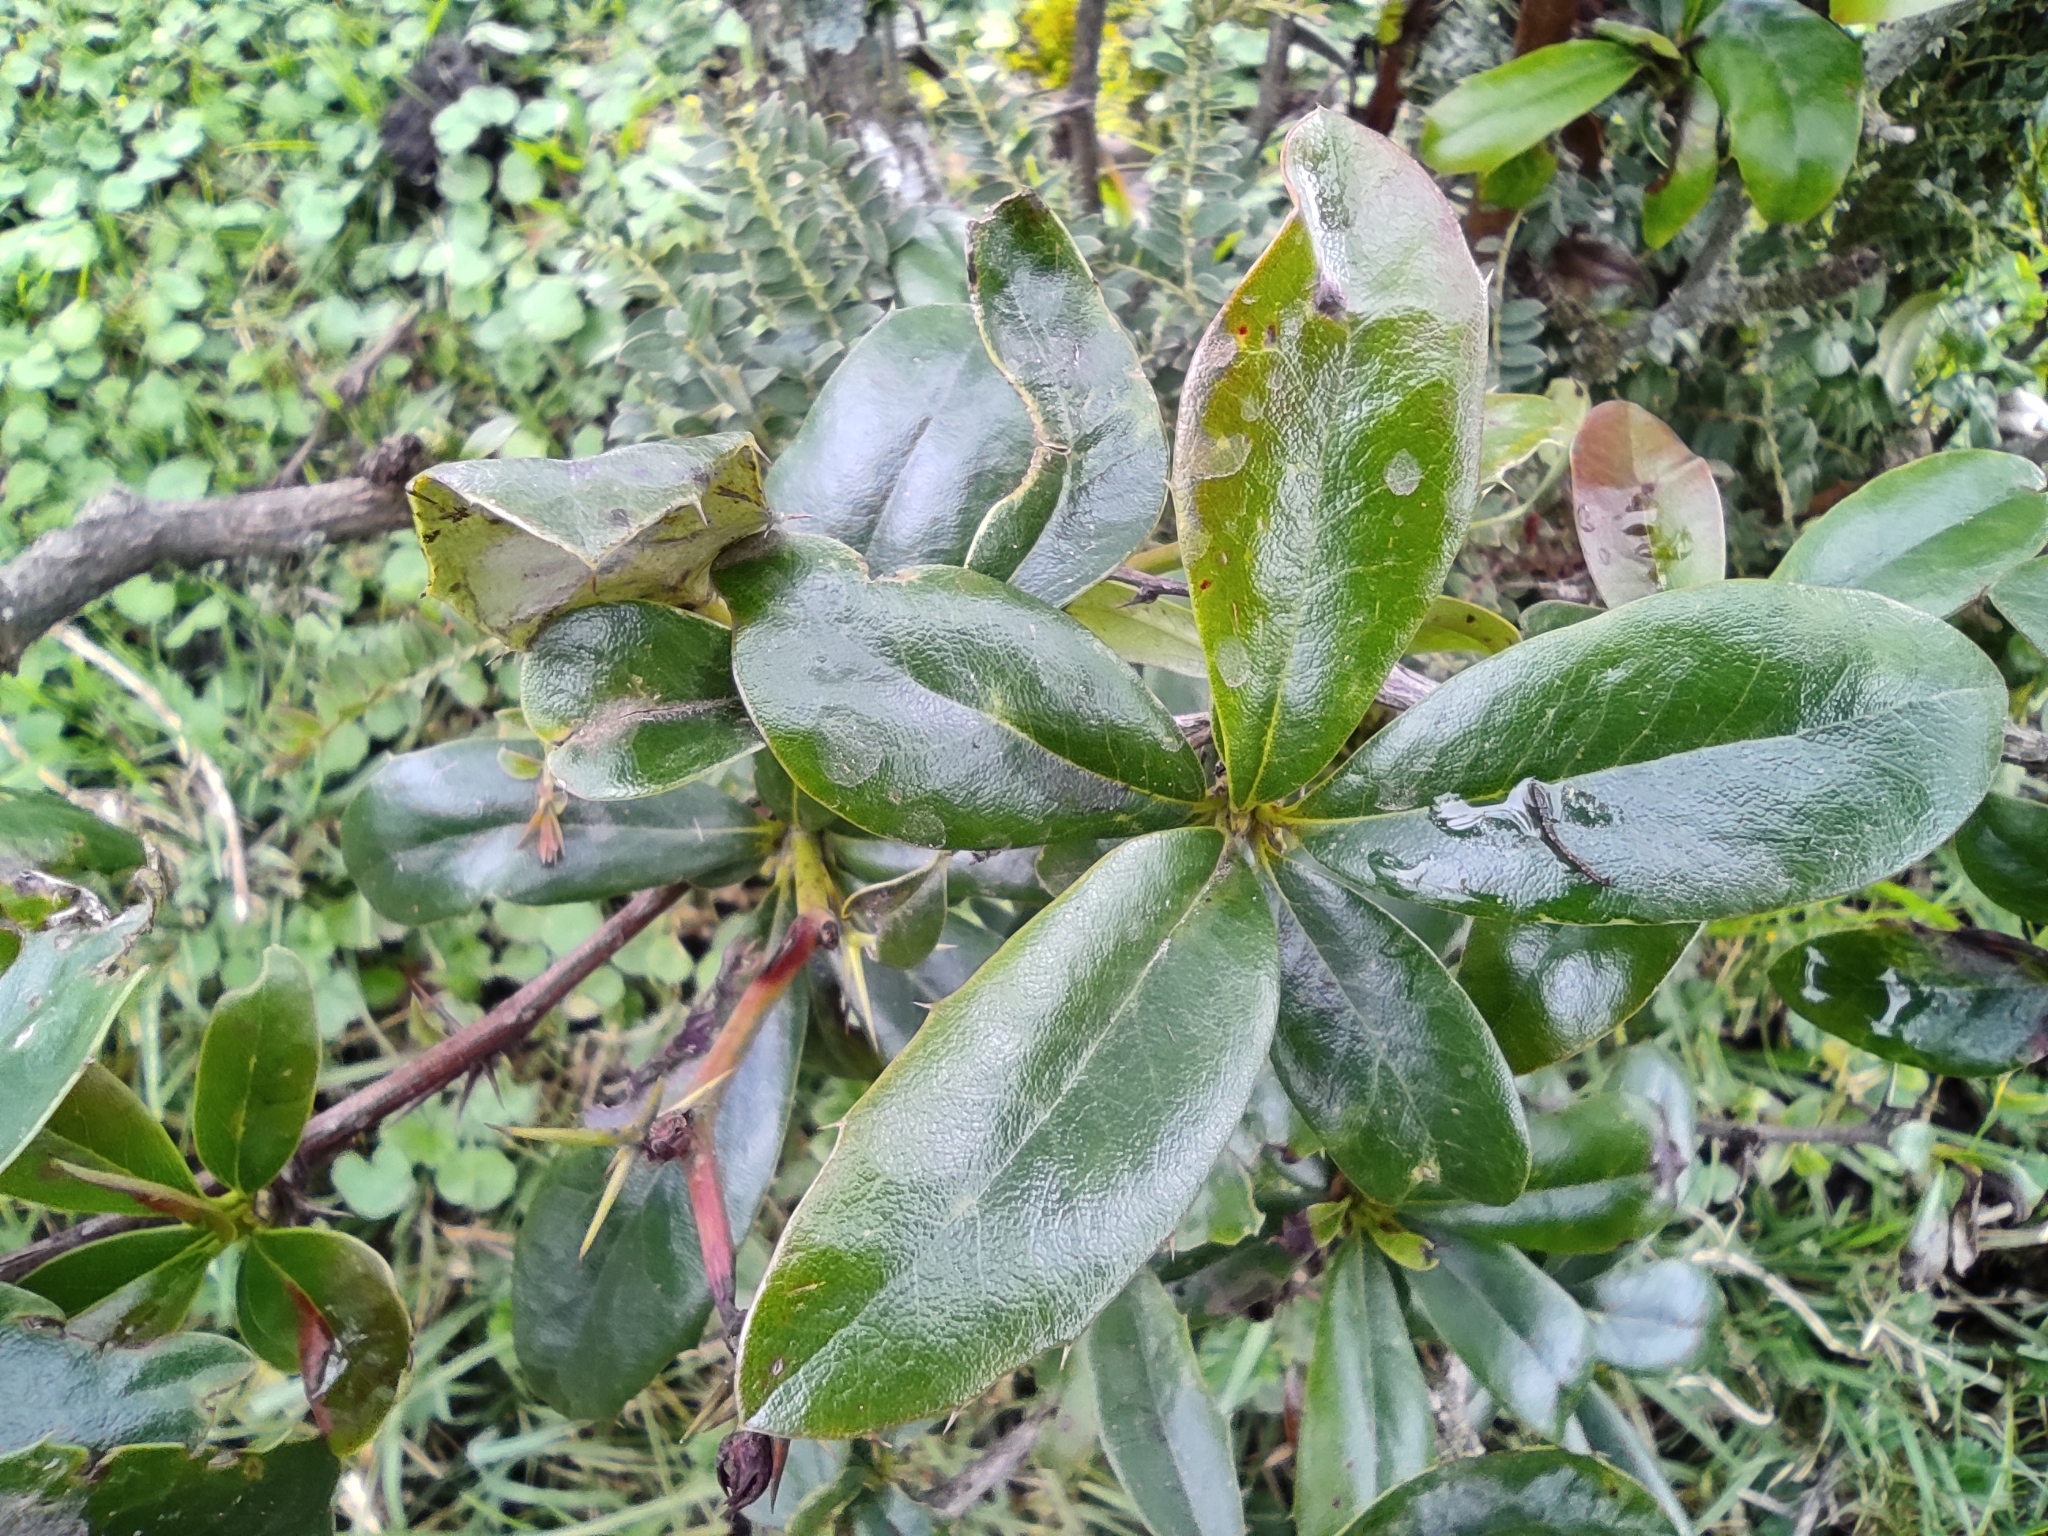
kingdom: Plantae
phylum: Tracheophyta
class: Magnoliopsida
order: Ranunculales
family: Berberidaceae
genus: Berberis
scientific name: Berberis hallii
